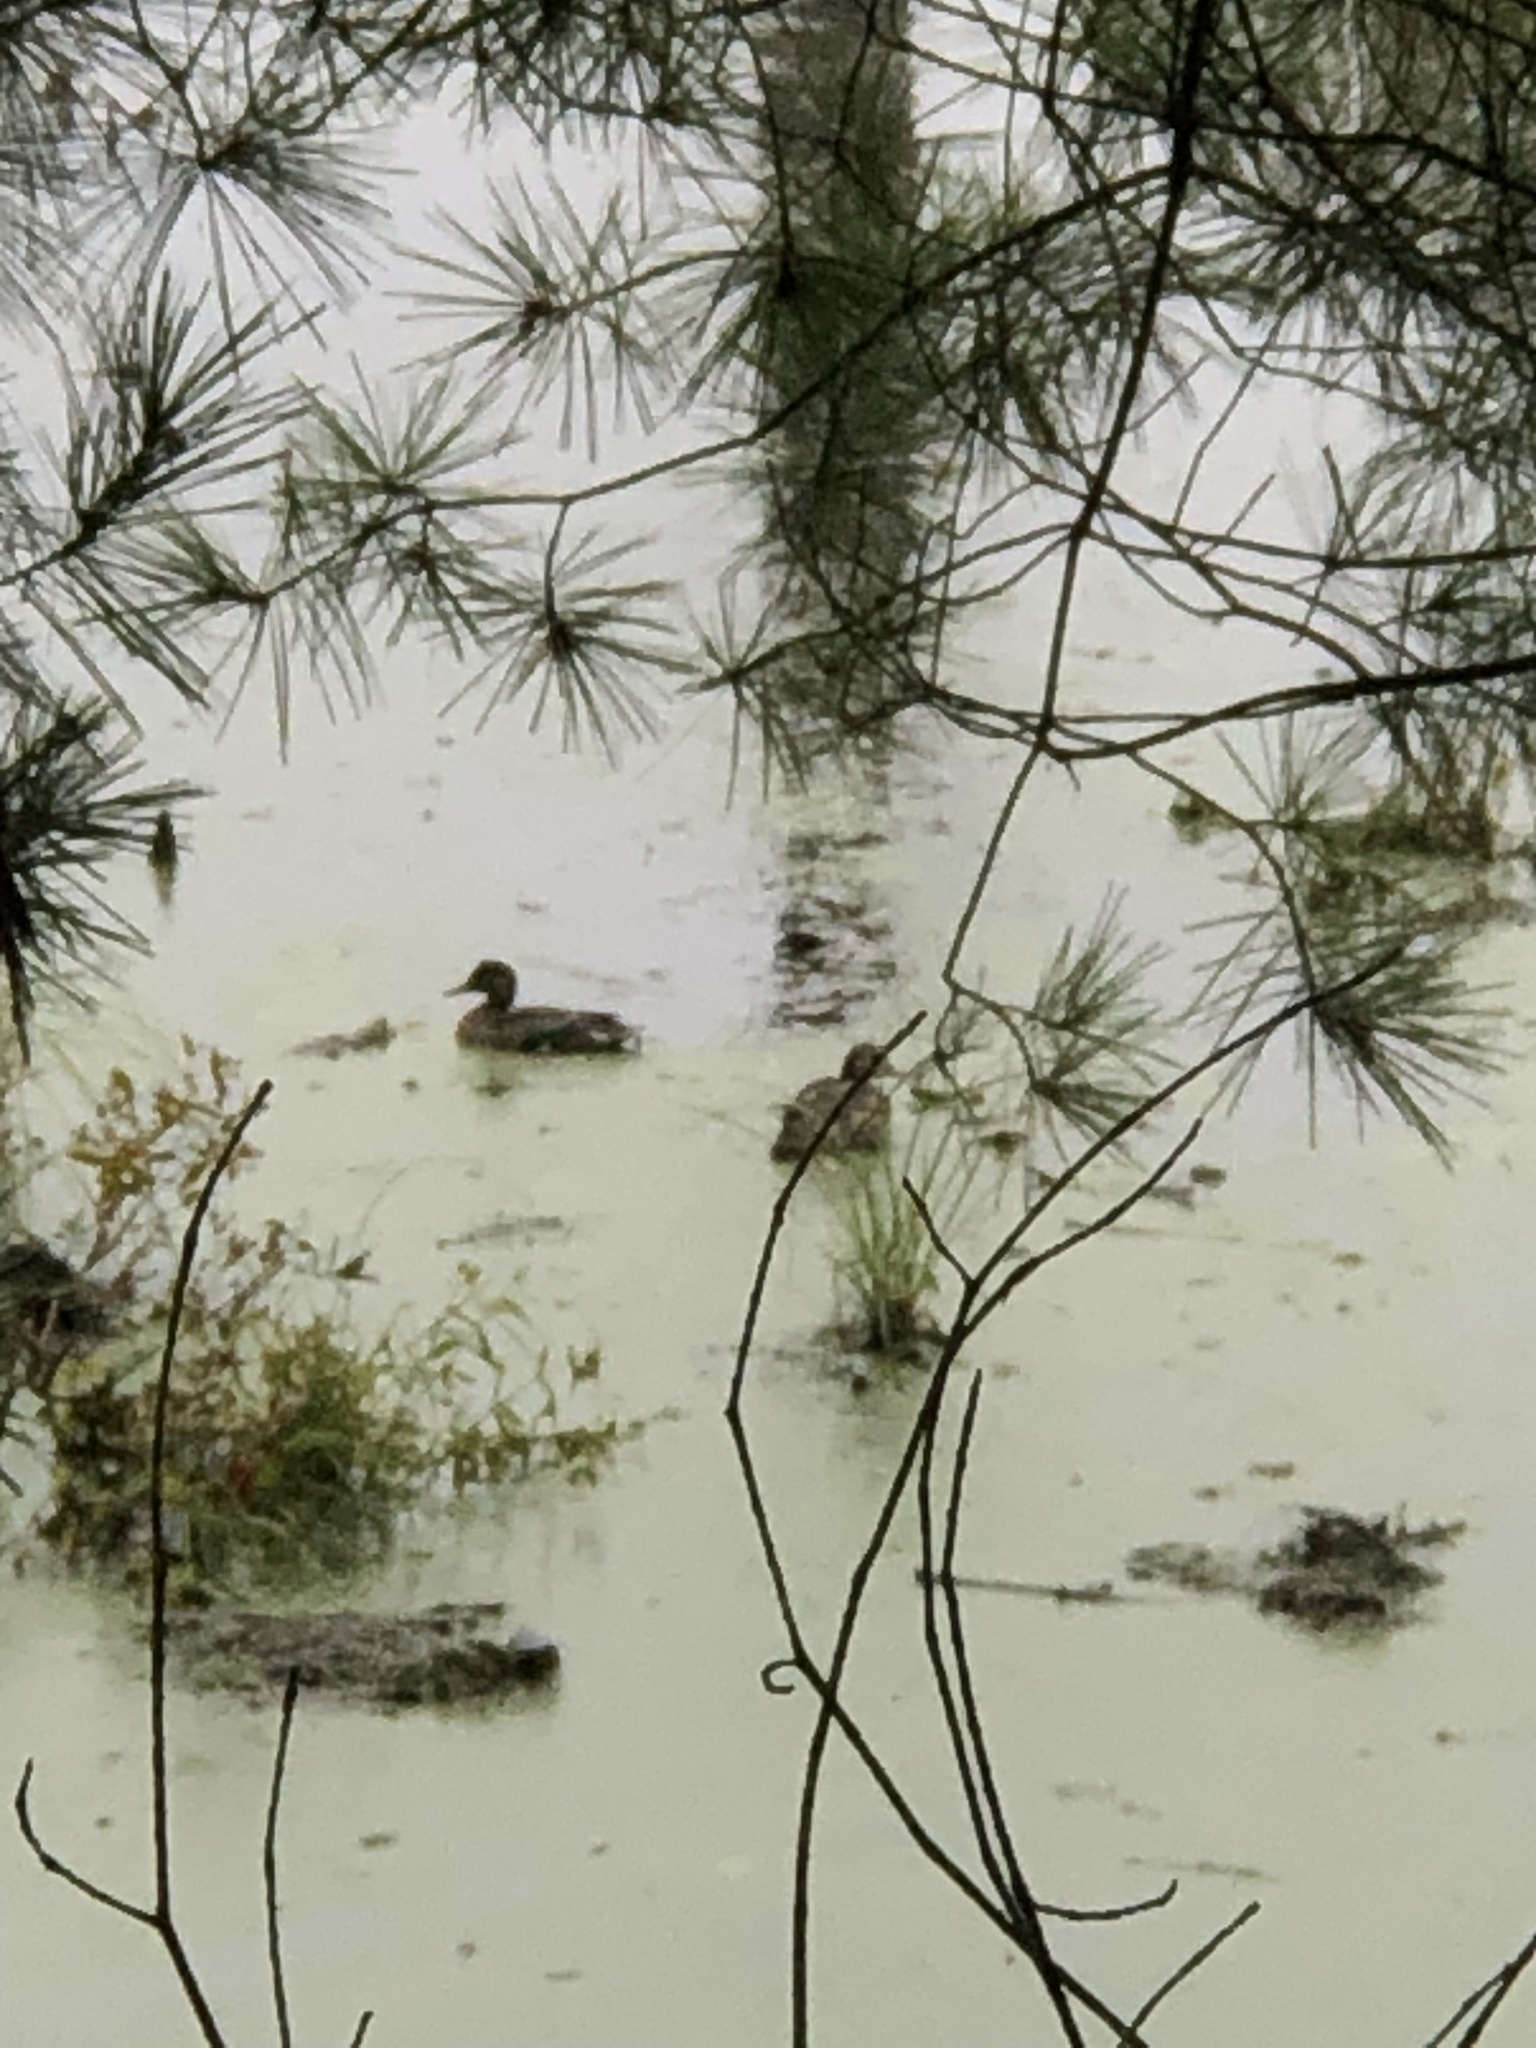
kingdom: Animalia
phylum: Chordata
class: Aves
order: Anseriformes
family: Anatidae
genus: Anas
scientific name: Anas crecca
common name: Eurasian teal
